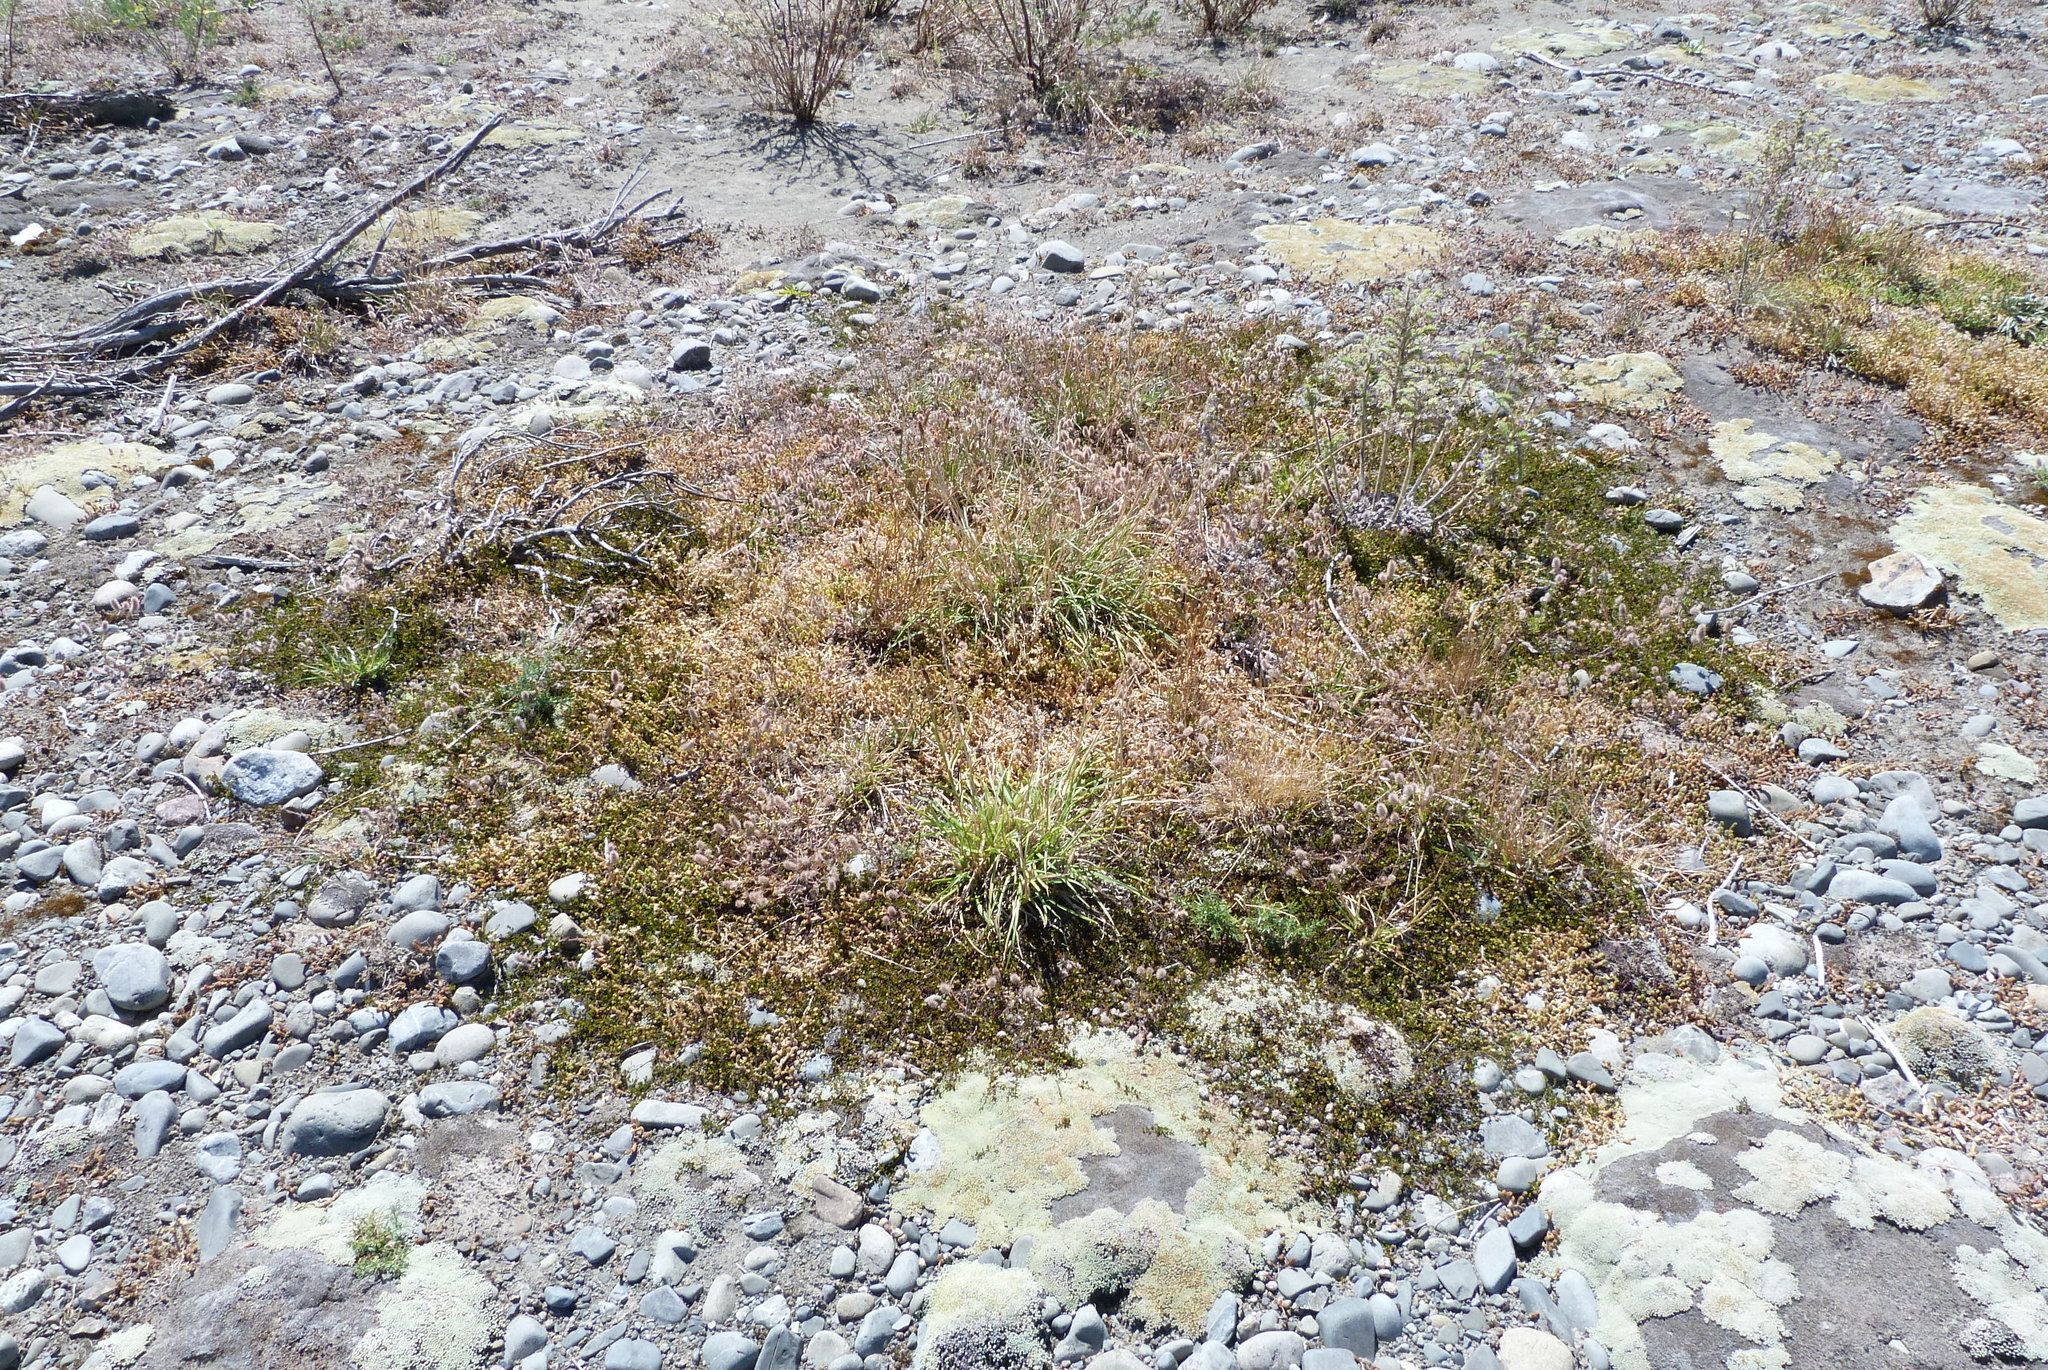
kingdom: Plantae
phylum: Tracheophyta
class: Magnoliopsida
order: Asterales
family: Asteraceae
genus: Raoulia
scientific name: Raoulia australis
